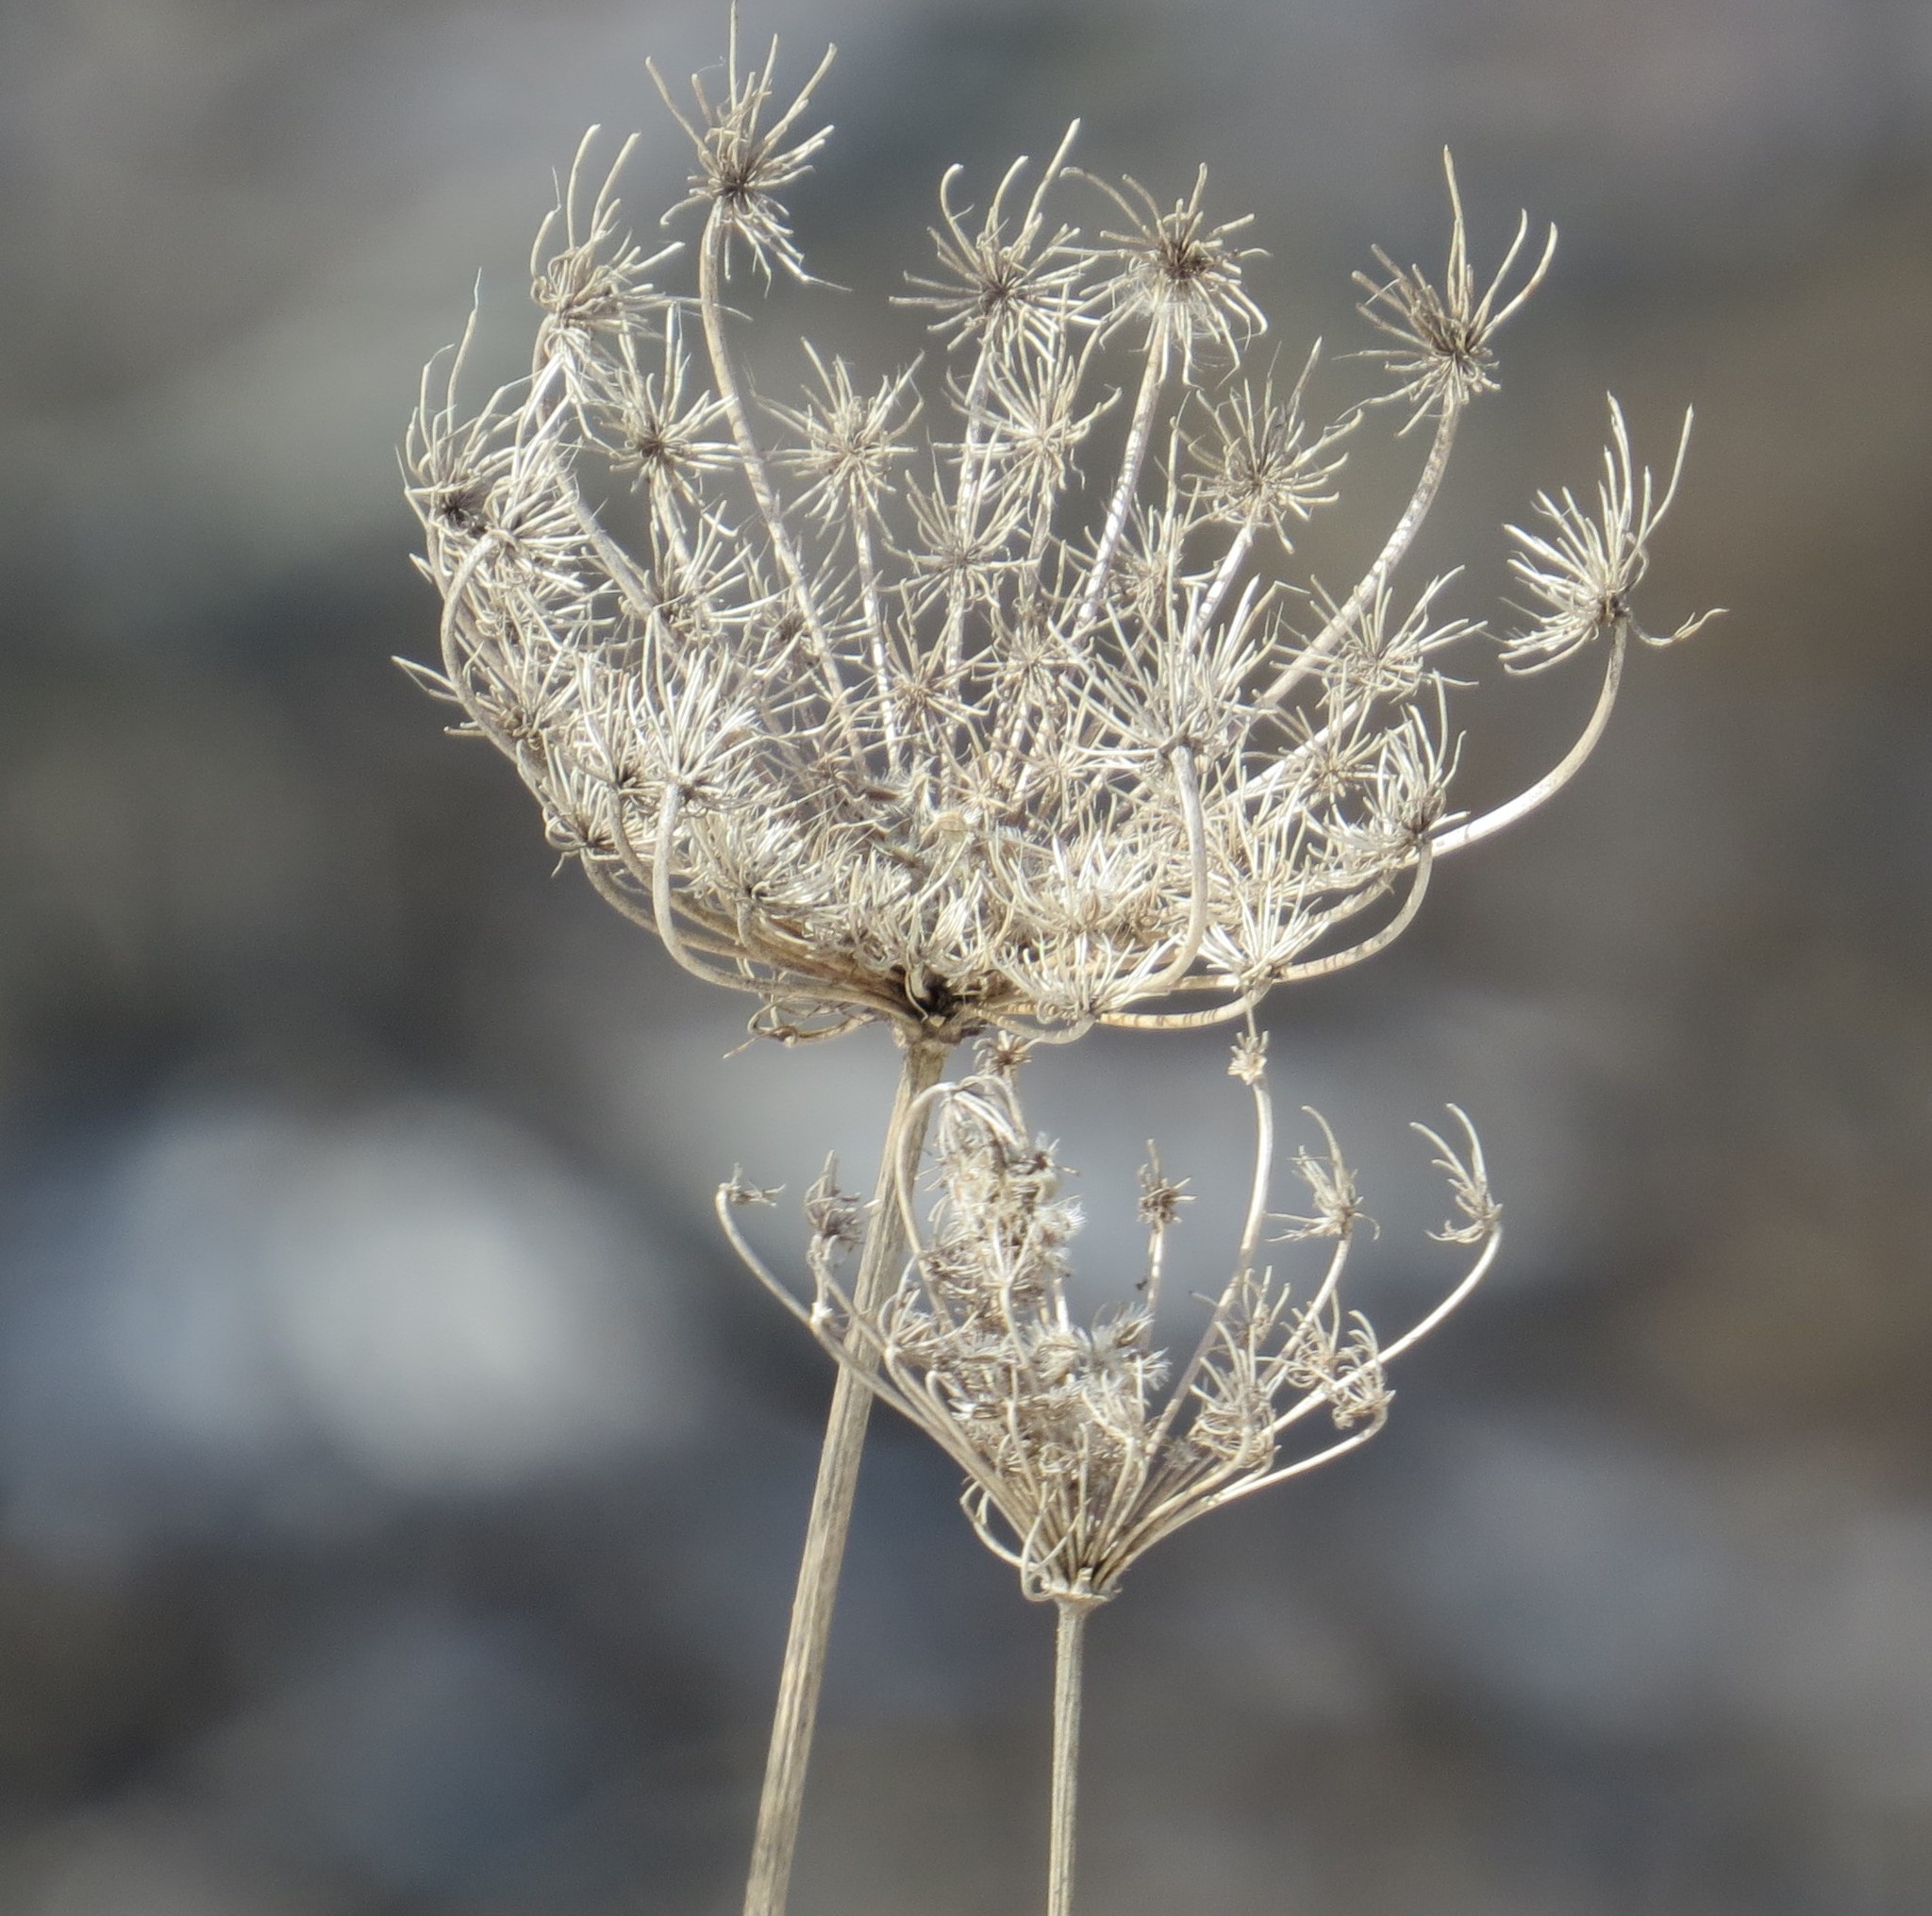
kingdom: Plantae
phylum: Tracheophyta
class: Magnoliopsida
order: Apiales
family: Apiaceae
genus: Daucus
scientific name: Daucus carota
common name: Wild carrot
